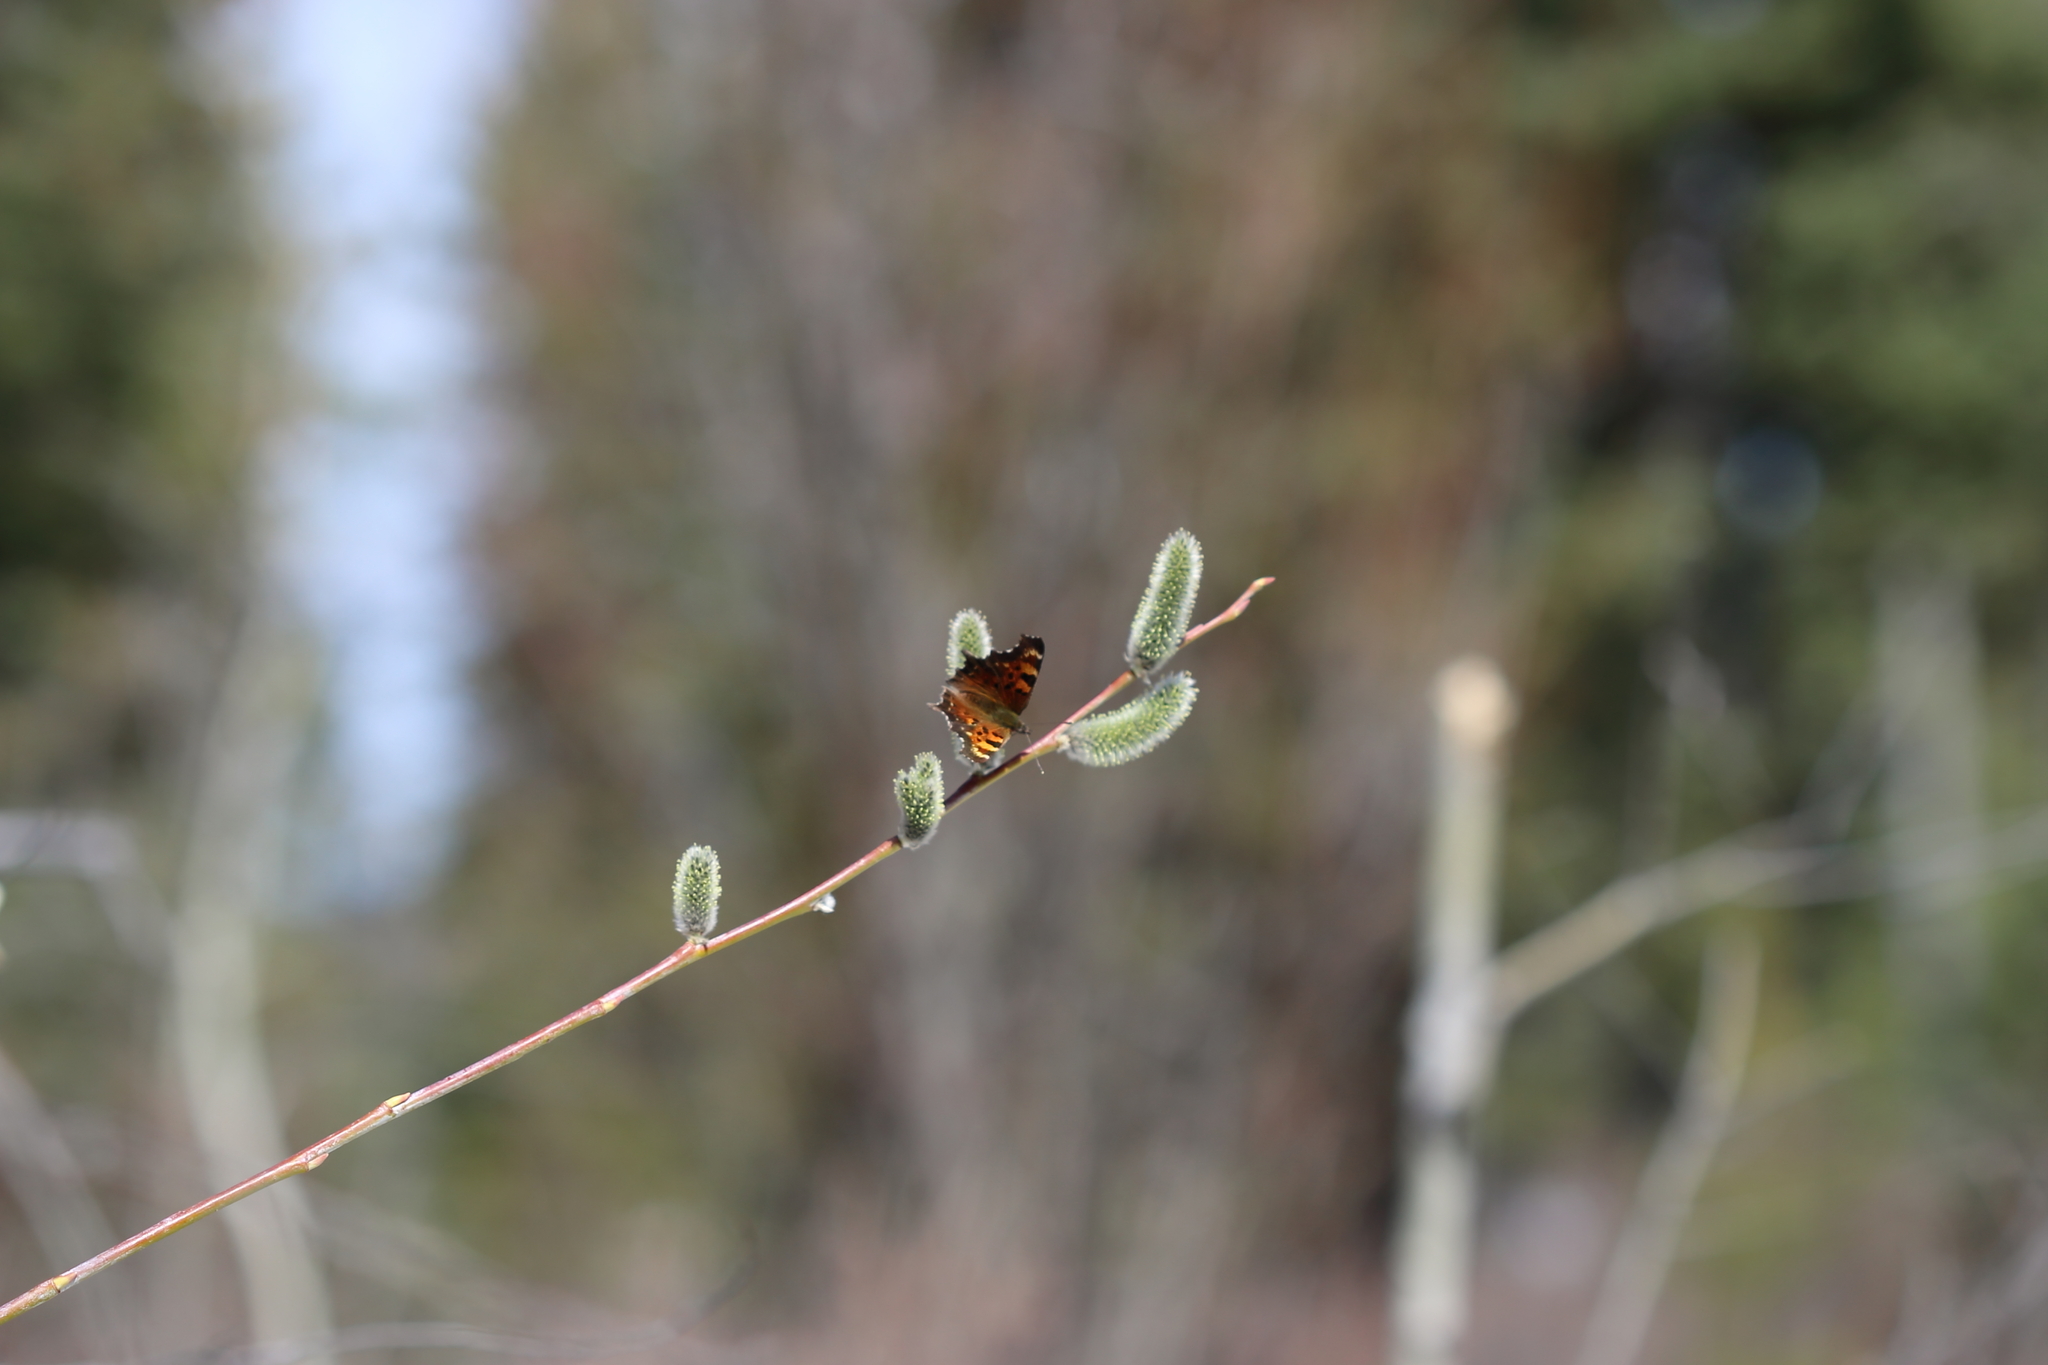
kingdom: Animalia
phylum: Arthropoda
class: Insecta
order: Lepidoptera
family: Nymphalidae
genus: Polygonia
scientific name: Polygonia faunus
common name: Green comma
